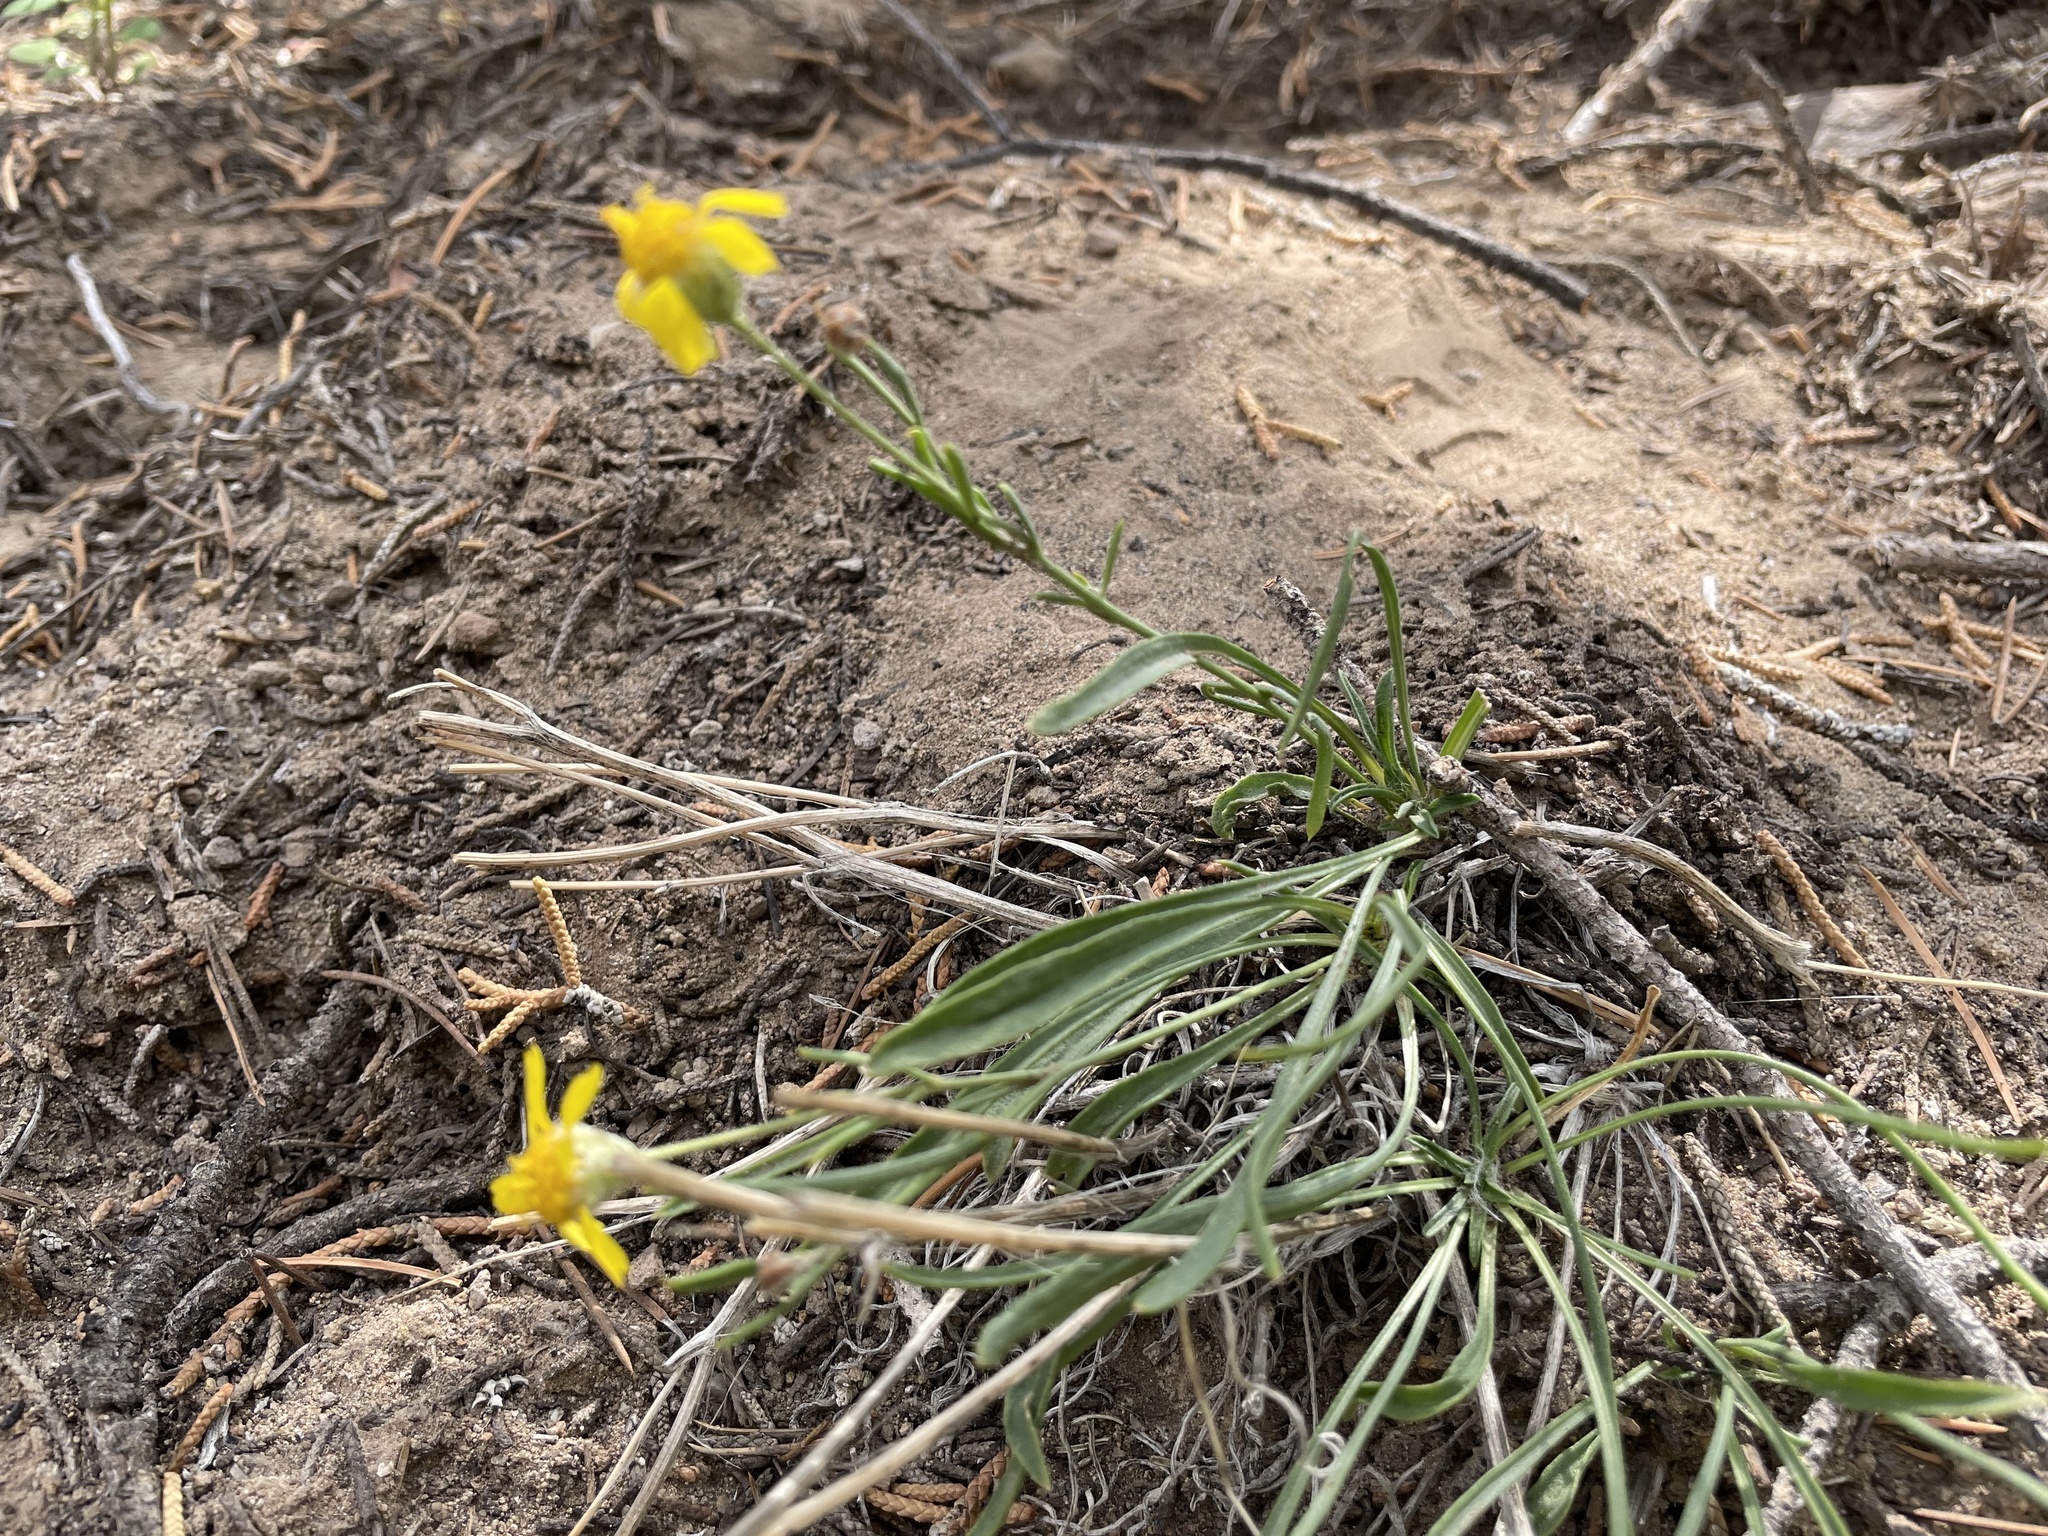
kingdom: Plantae
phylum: Tracheophyta
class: Magnoliopsida
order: Asterales
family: Asteraceae
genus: Tetraneuris
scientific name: Tetraneuris ivesiana
